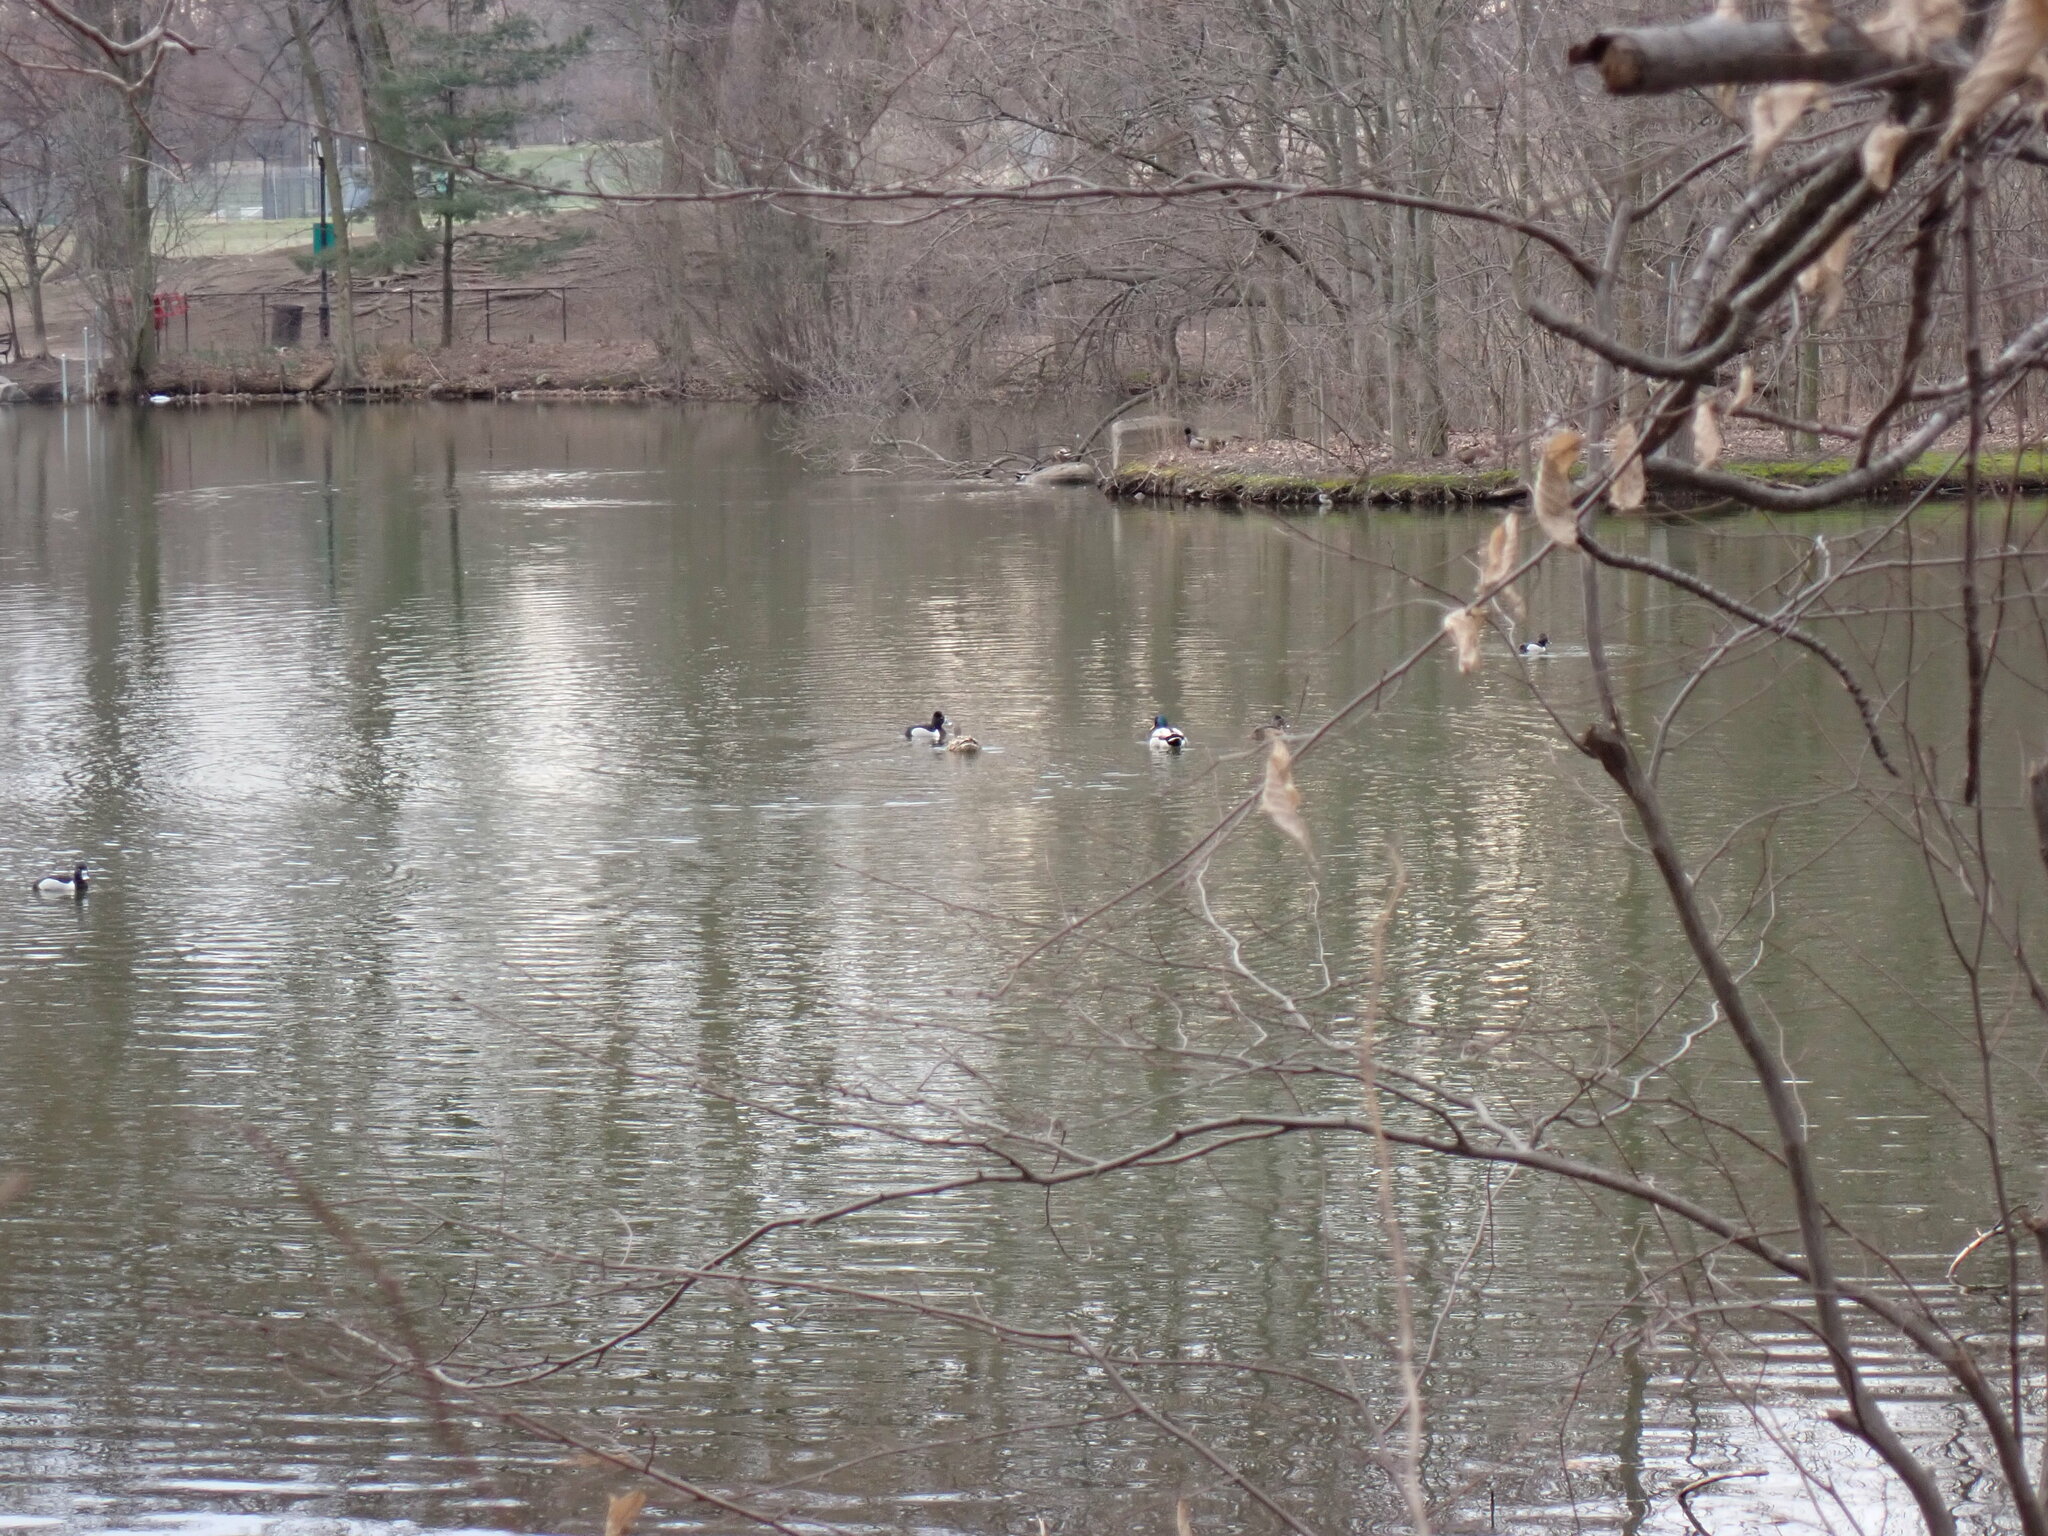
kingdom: Animalia
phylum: Chordata
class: Aves
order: Anseriformes
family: Anatidae
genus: Aythya
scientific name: Aythya collaris
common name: Ring-necked duck
